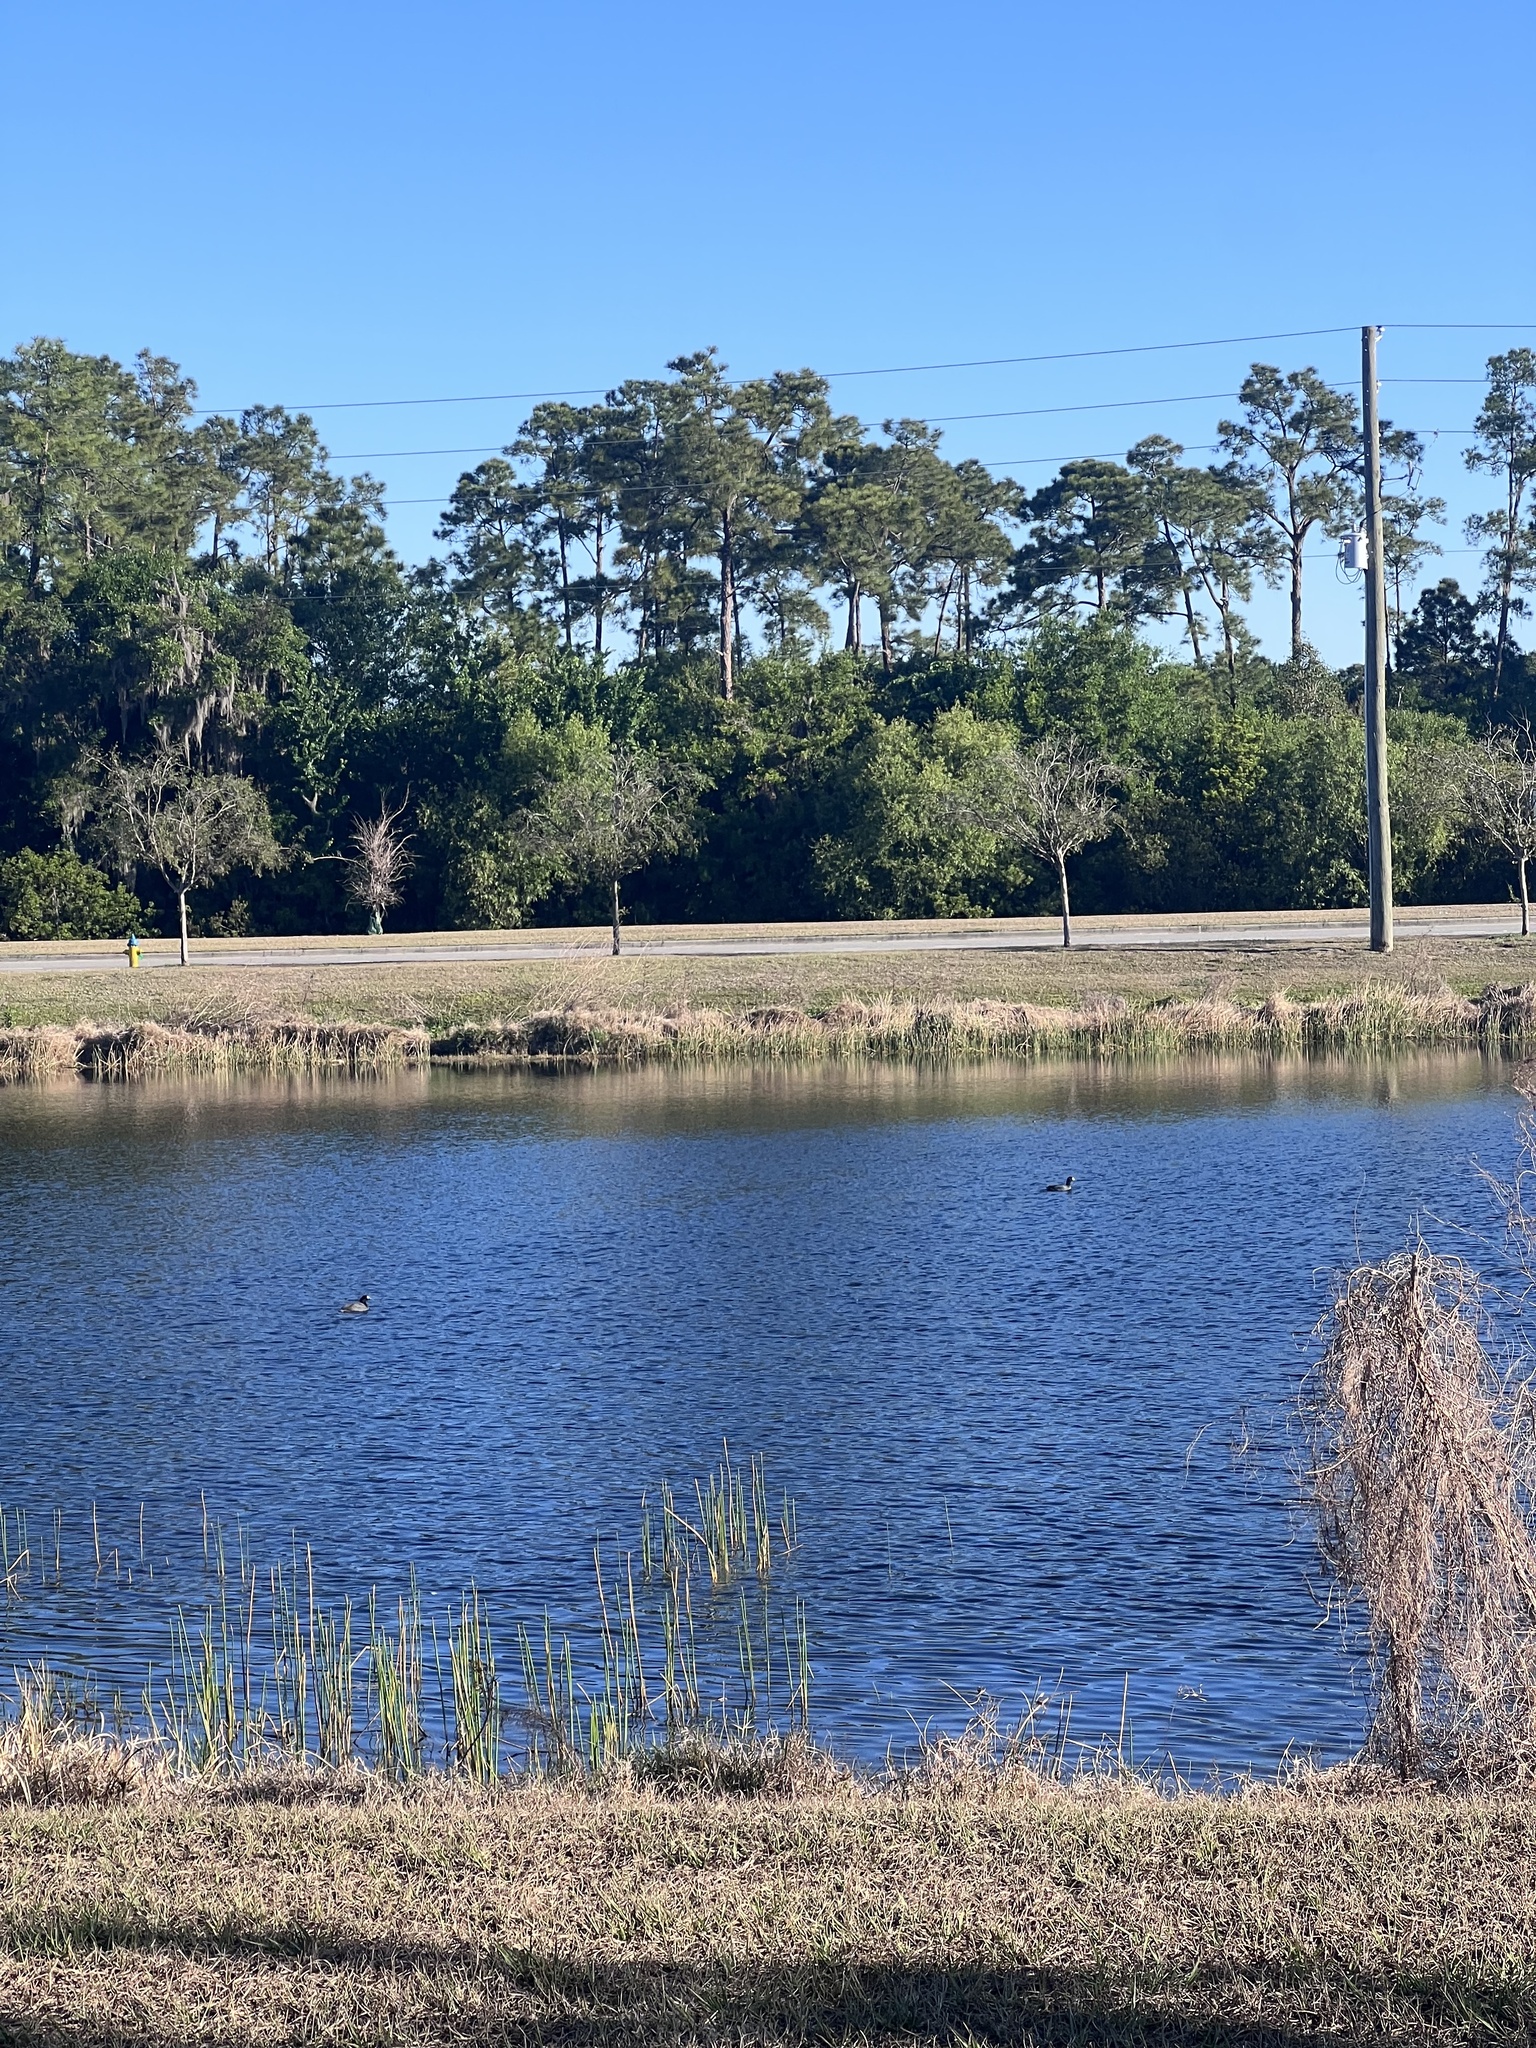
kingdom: Animalia
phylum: Chordata
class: Aves
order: Gruiformes
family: Rallidae
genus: Fulica
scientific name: Fulica americana
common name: American coot
